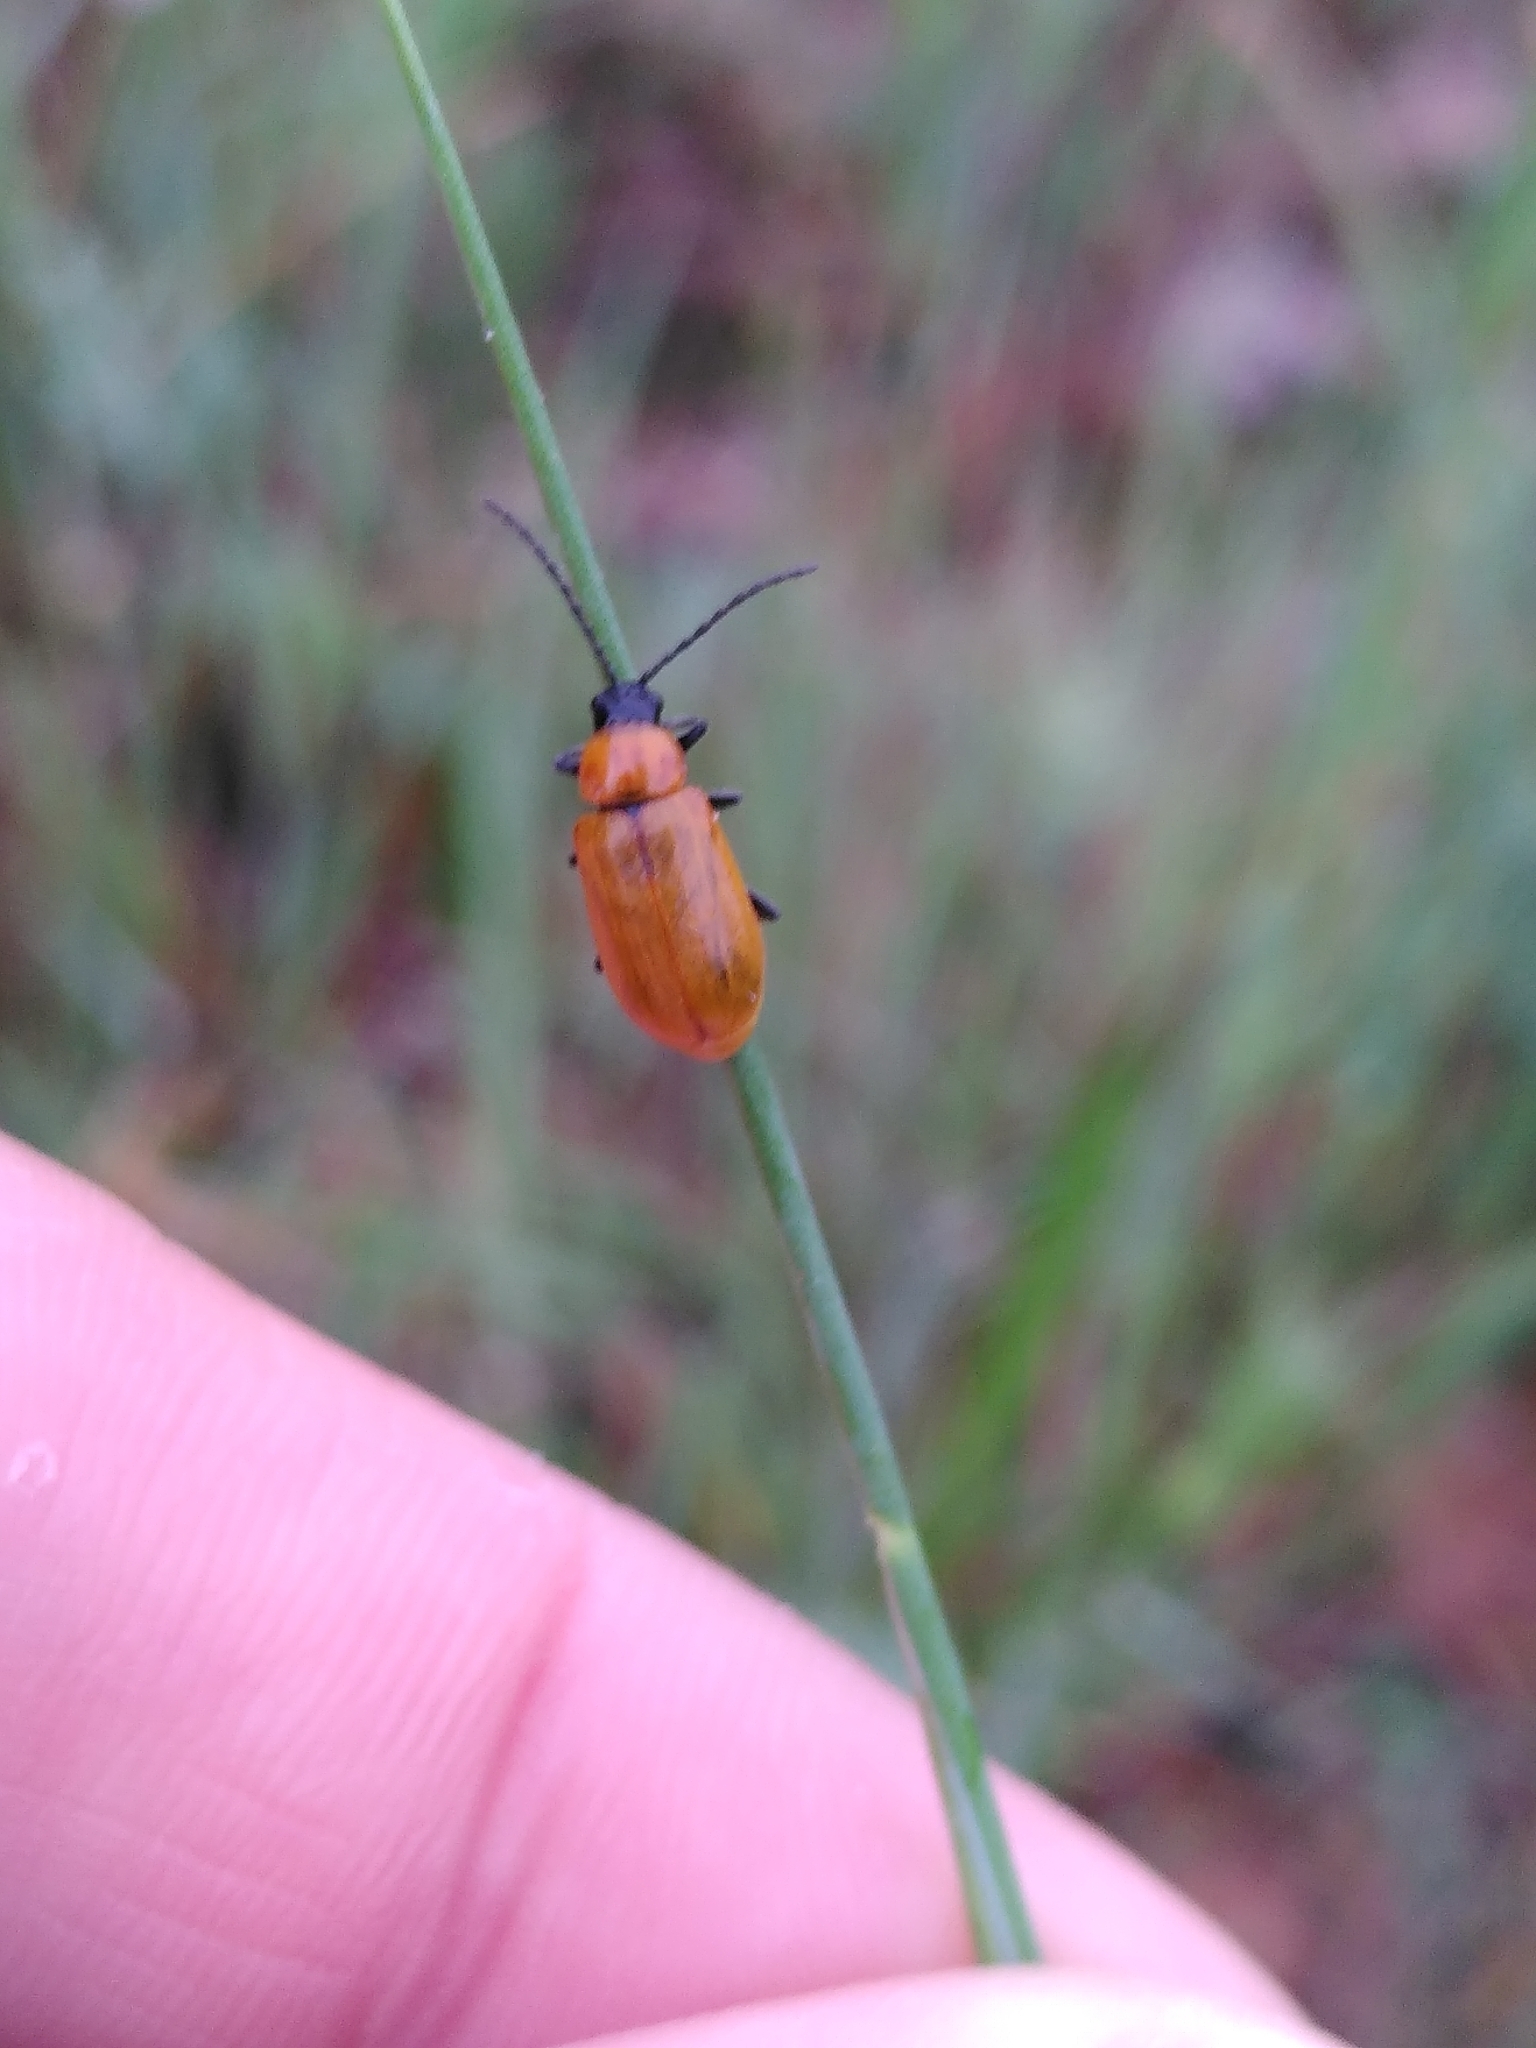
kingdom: Animalia
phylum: Arthropoda
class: Insecta
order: Coleoptera
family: Chrysomelidae
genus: Exosoma
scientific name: Exosoma lusitanicum
